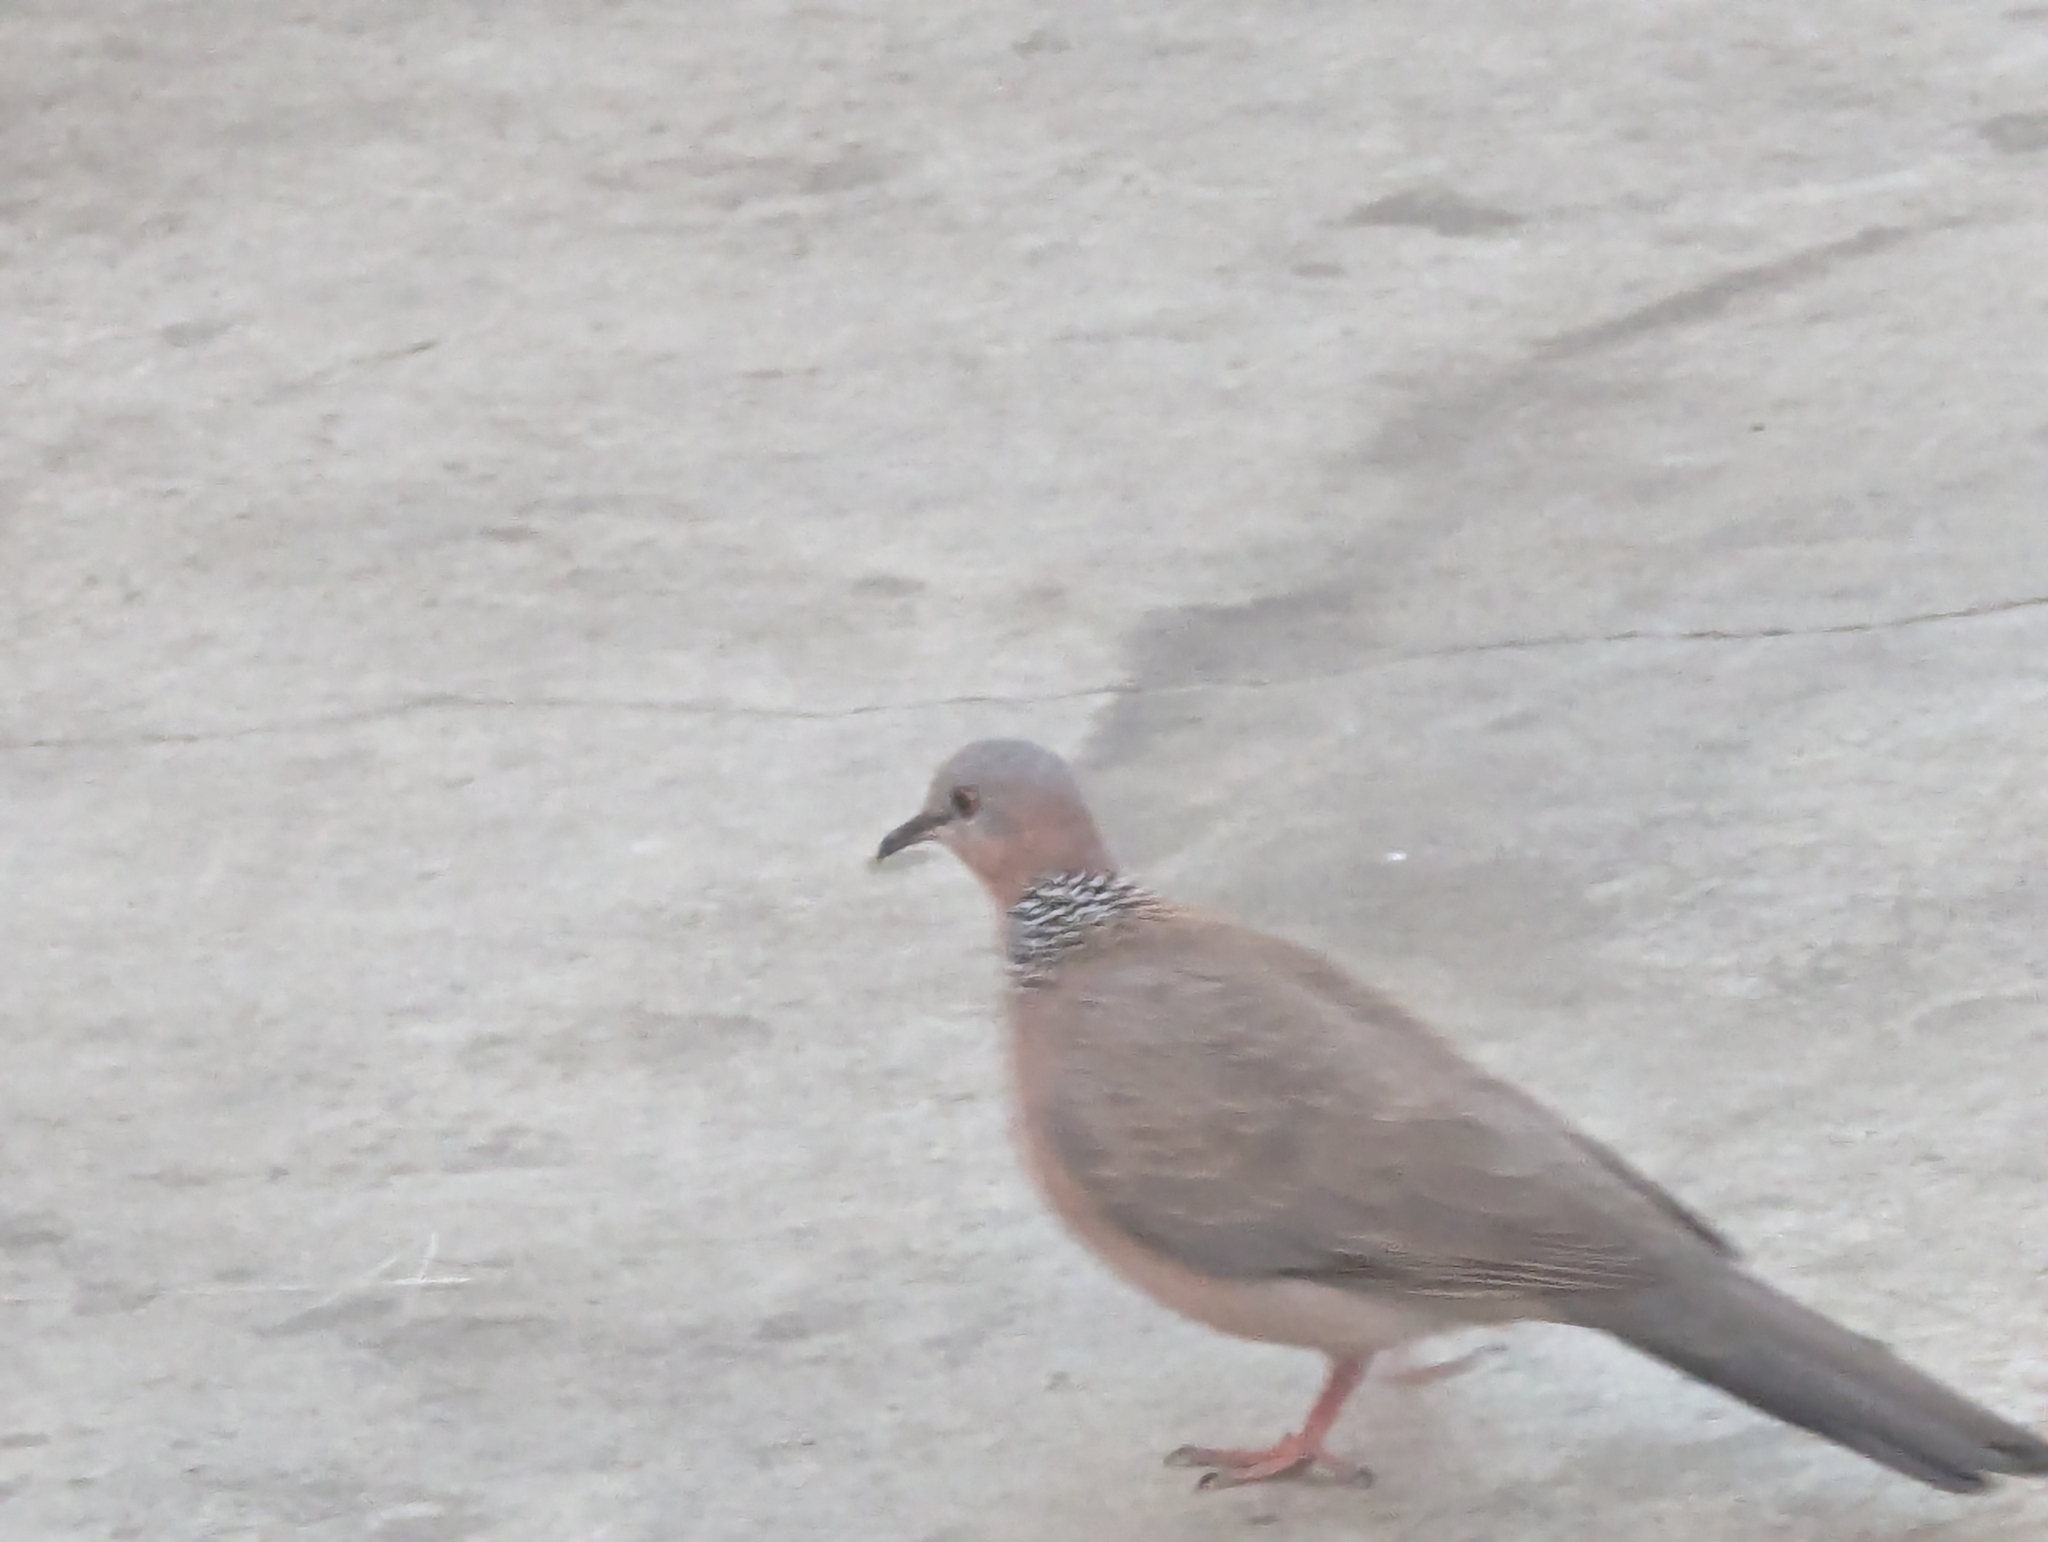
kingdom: Animalia
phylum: Chordata
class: Aves
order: Columbiformes
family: Columbidae
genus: Spilopelia
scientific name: Spilopelia chinensis
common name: Spotted dove
